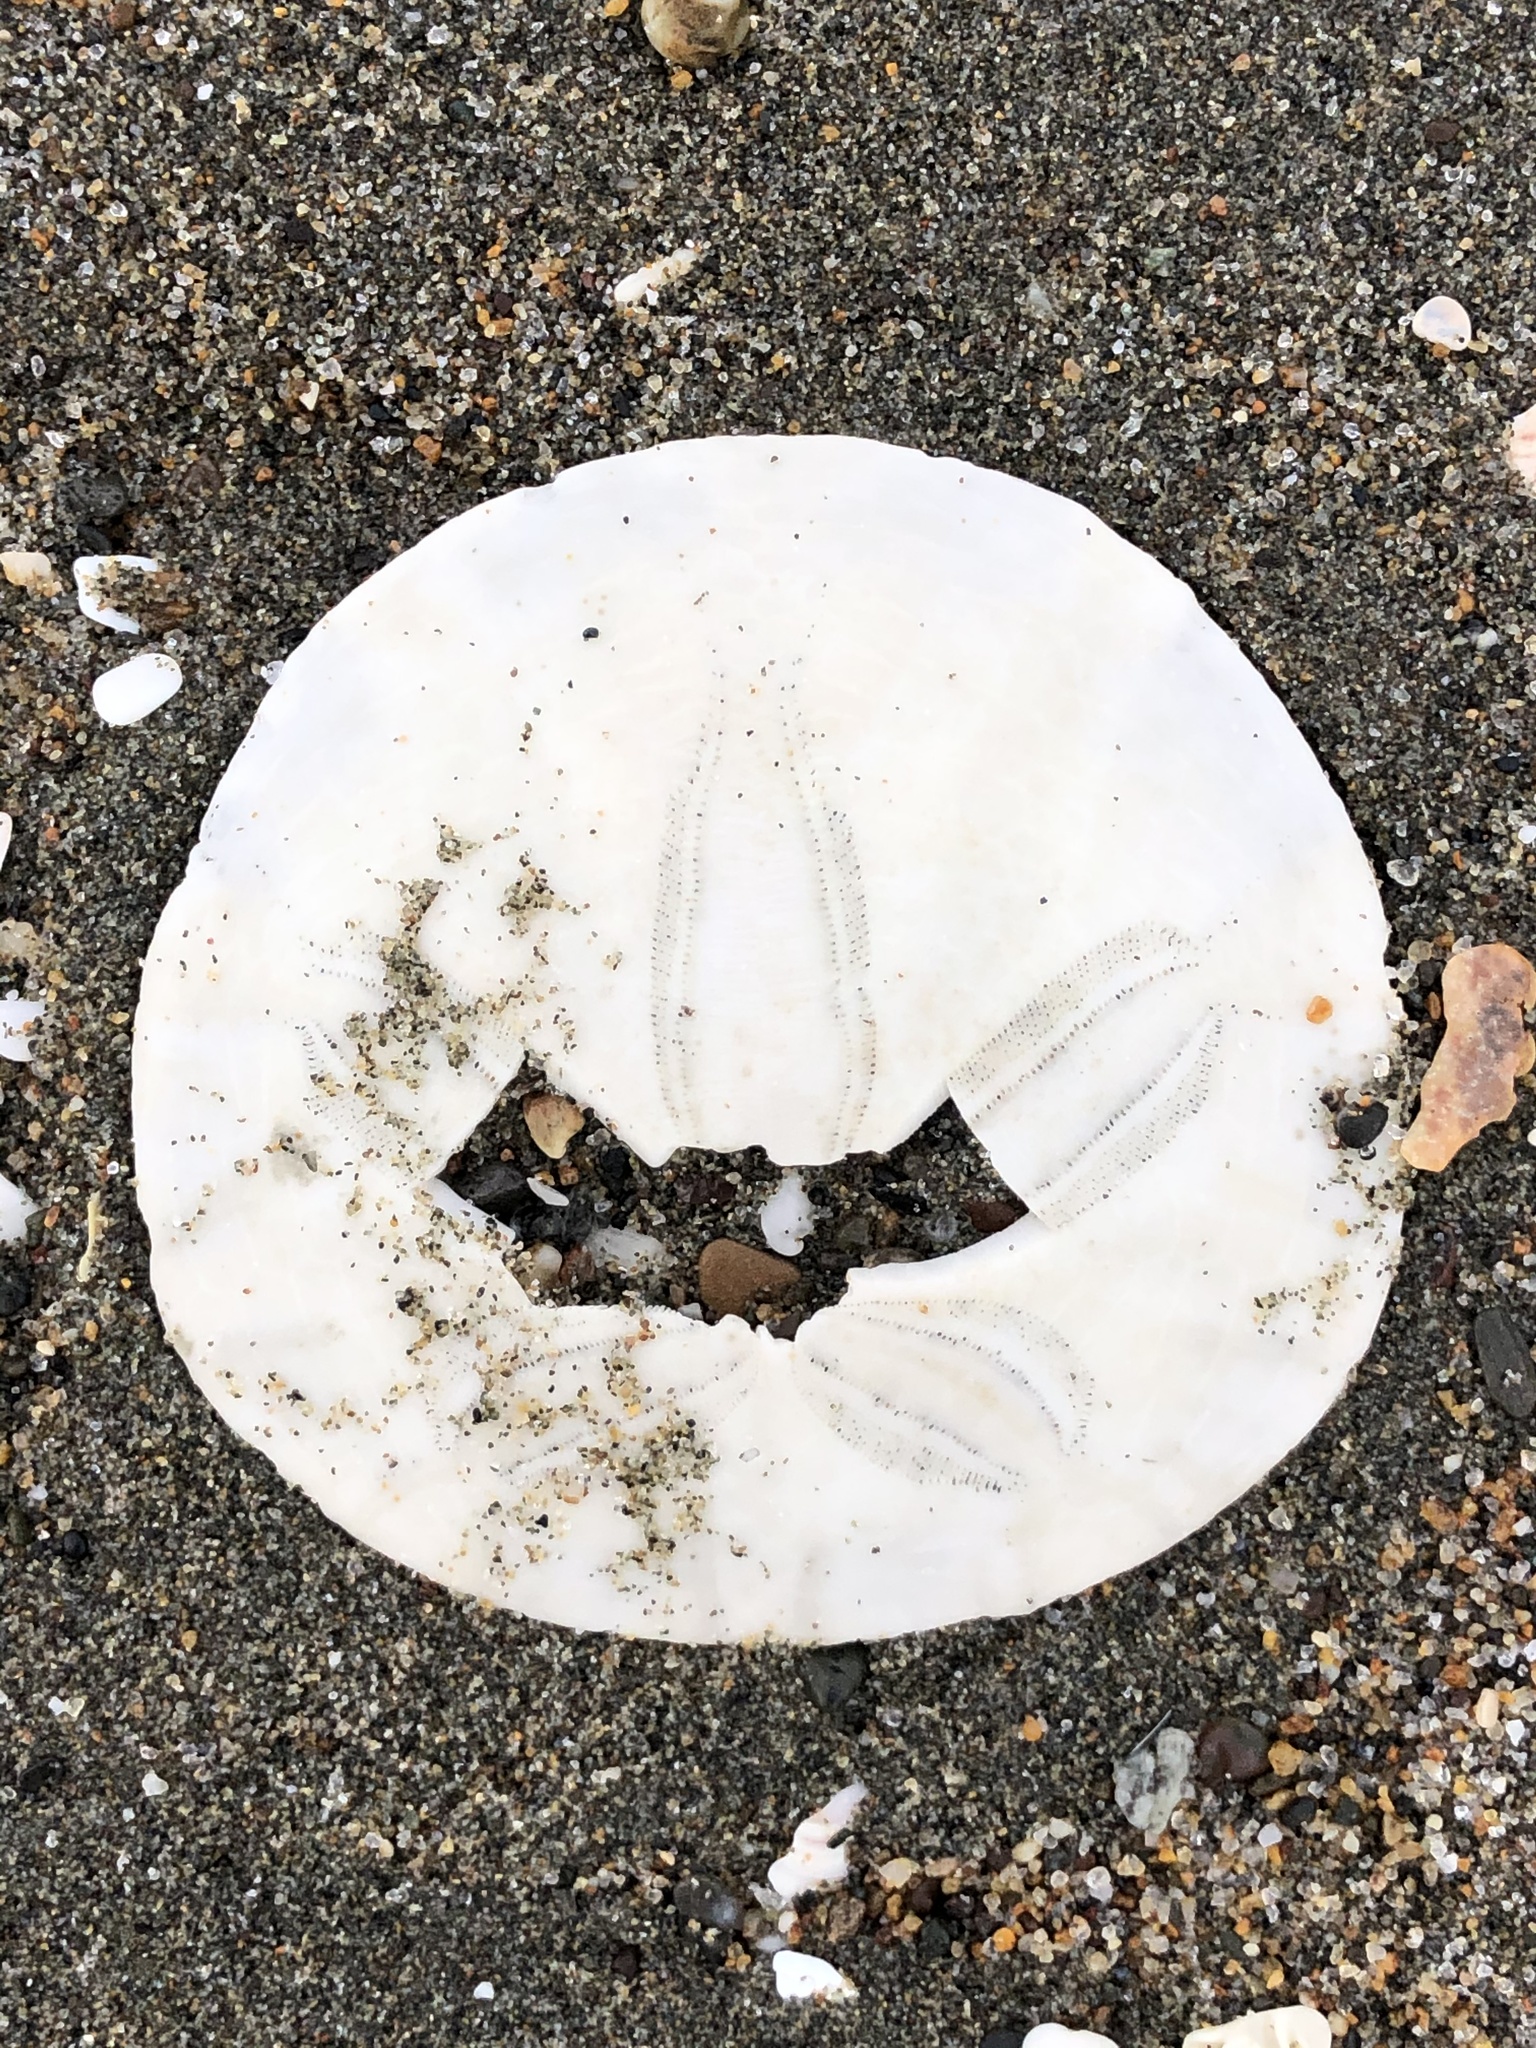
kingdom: Animalia
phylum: Echinodermata
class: Echinoidea
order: Echinolampadacea
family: Dendrasteridae
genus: Dendraster
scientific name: Dendraster excentricus
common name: Eccentric sand dollar sea urchin
